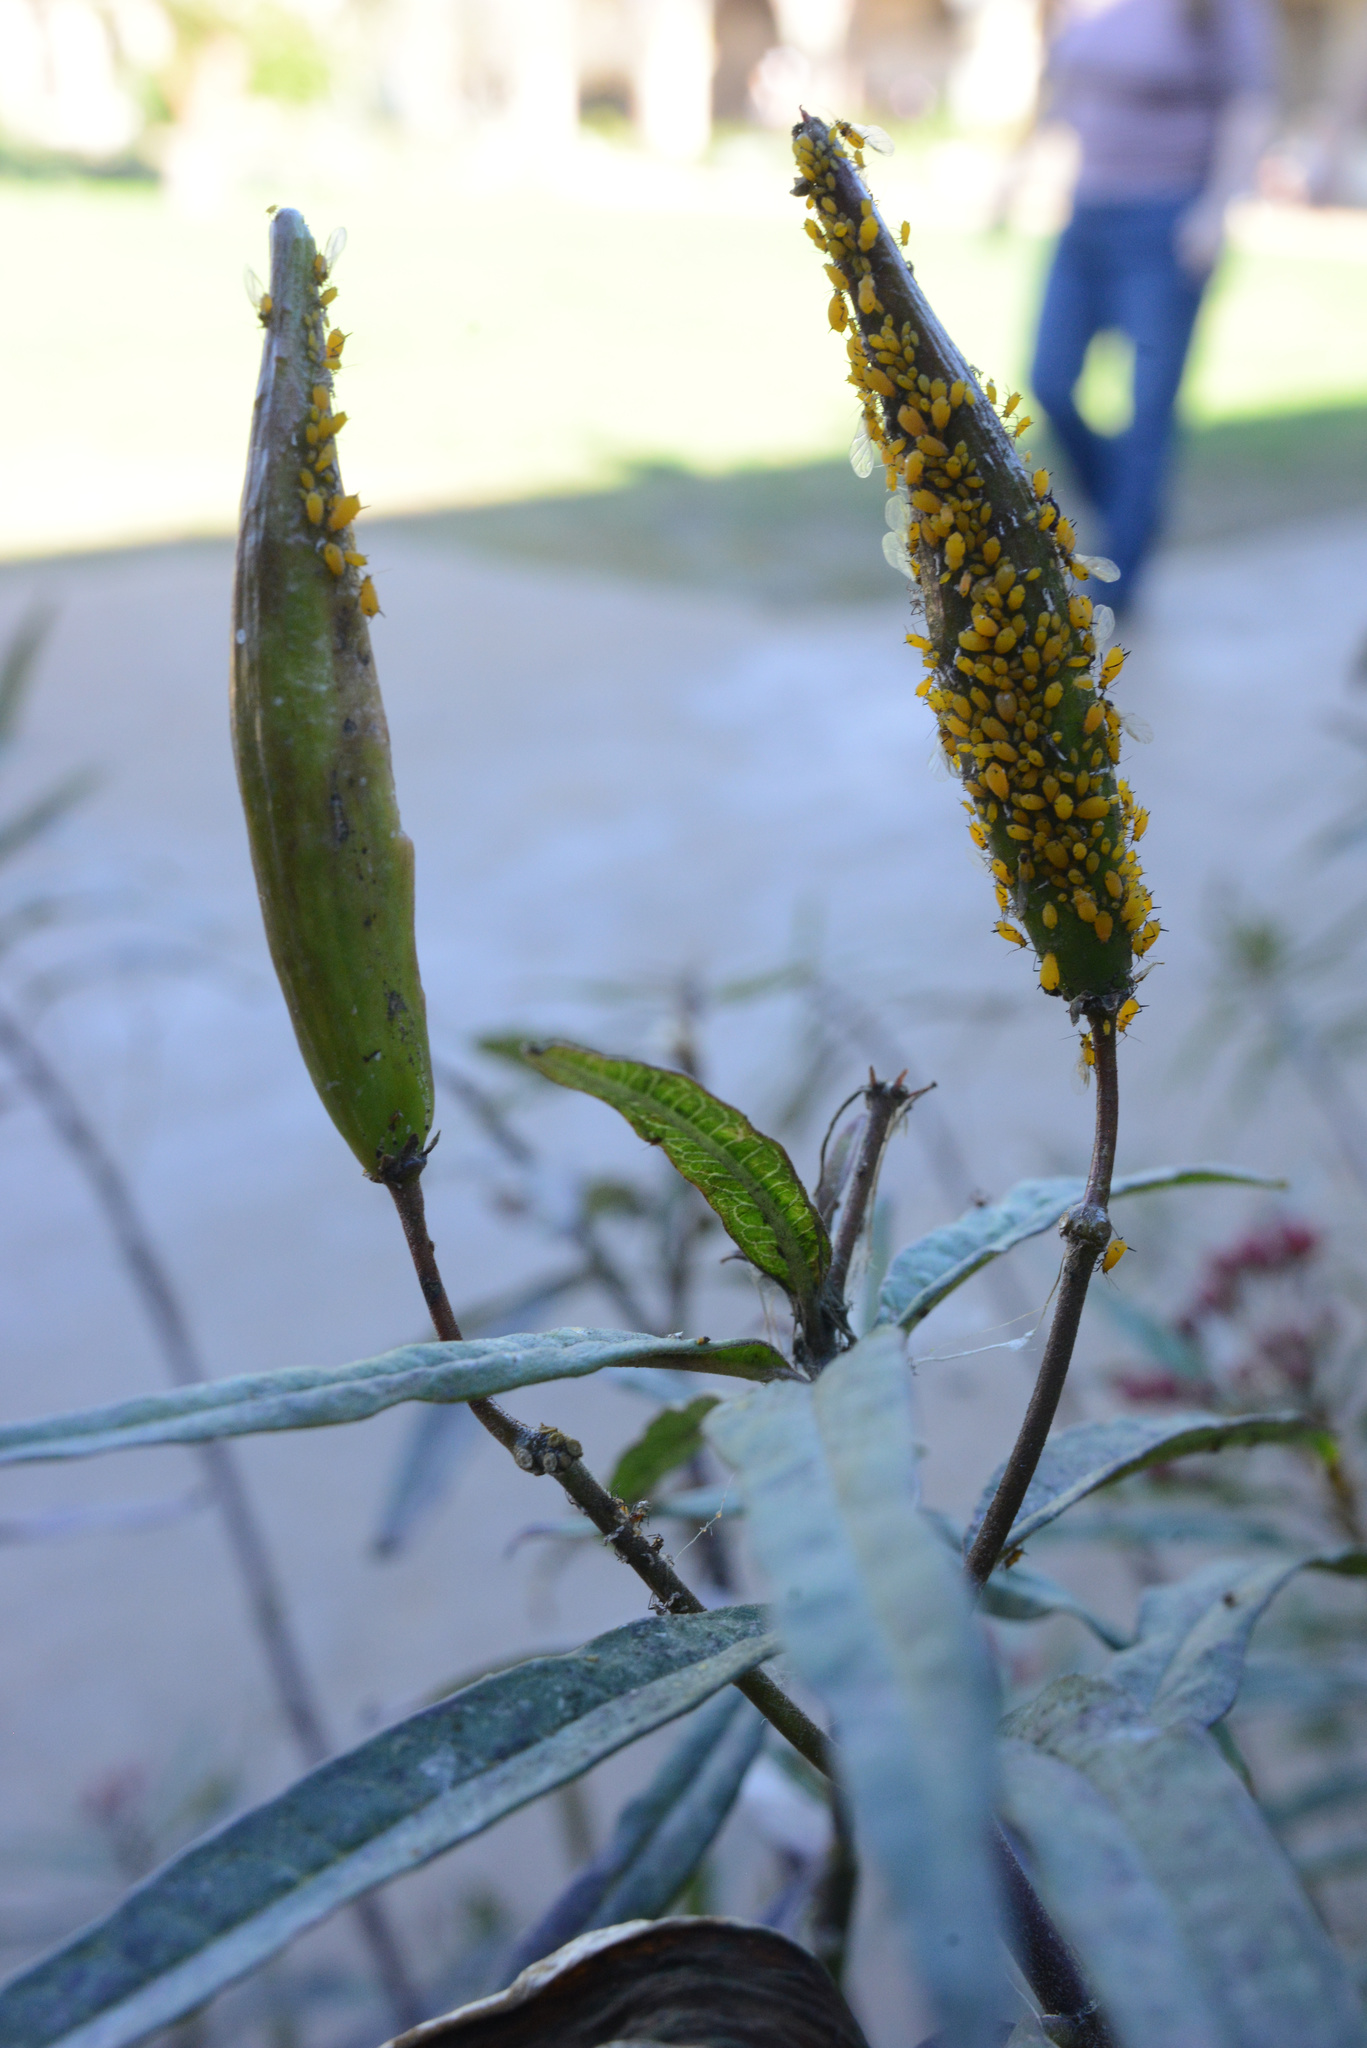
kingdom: Animalia
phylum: Arthropoda
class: Insecta
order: Hemiptera
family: Aphididae
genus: Aphis
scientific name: Aphis nerii
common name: Oleander aphid
